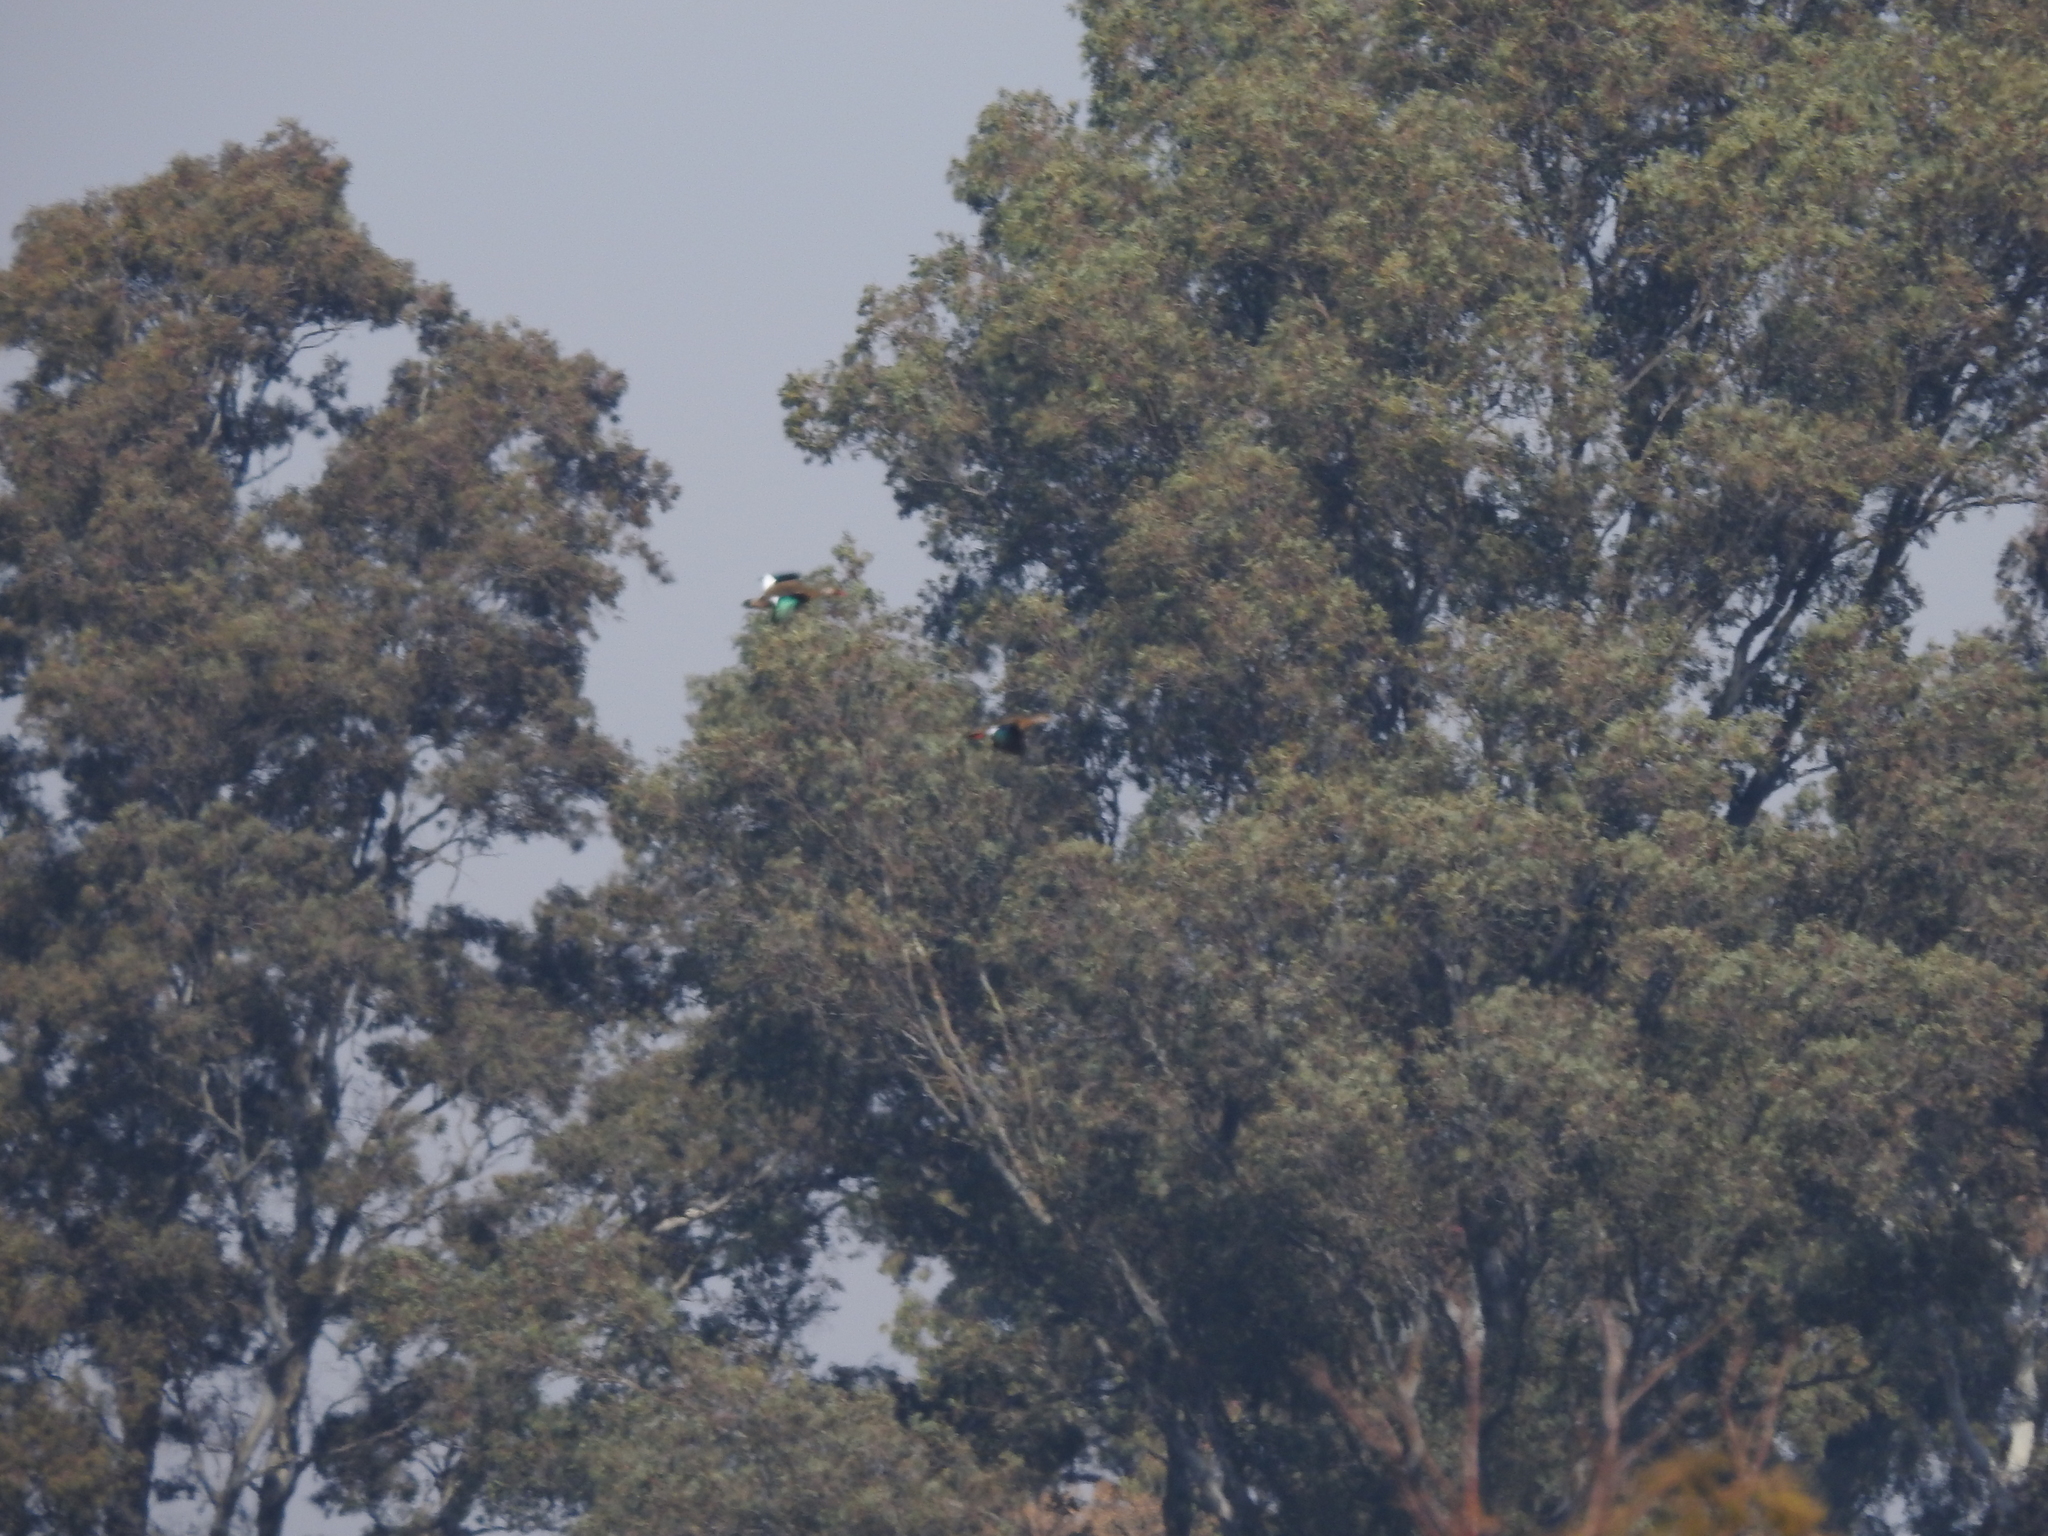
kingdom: Animalia
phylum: Chordata
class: Aves
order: Anseriformes
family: Anatidae
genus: Amazonetta
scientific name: Amazonetta brasiliensis
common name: Brazilian teal
